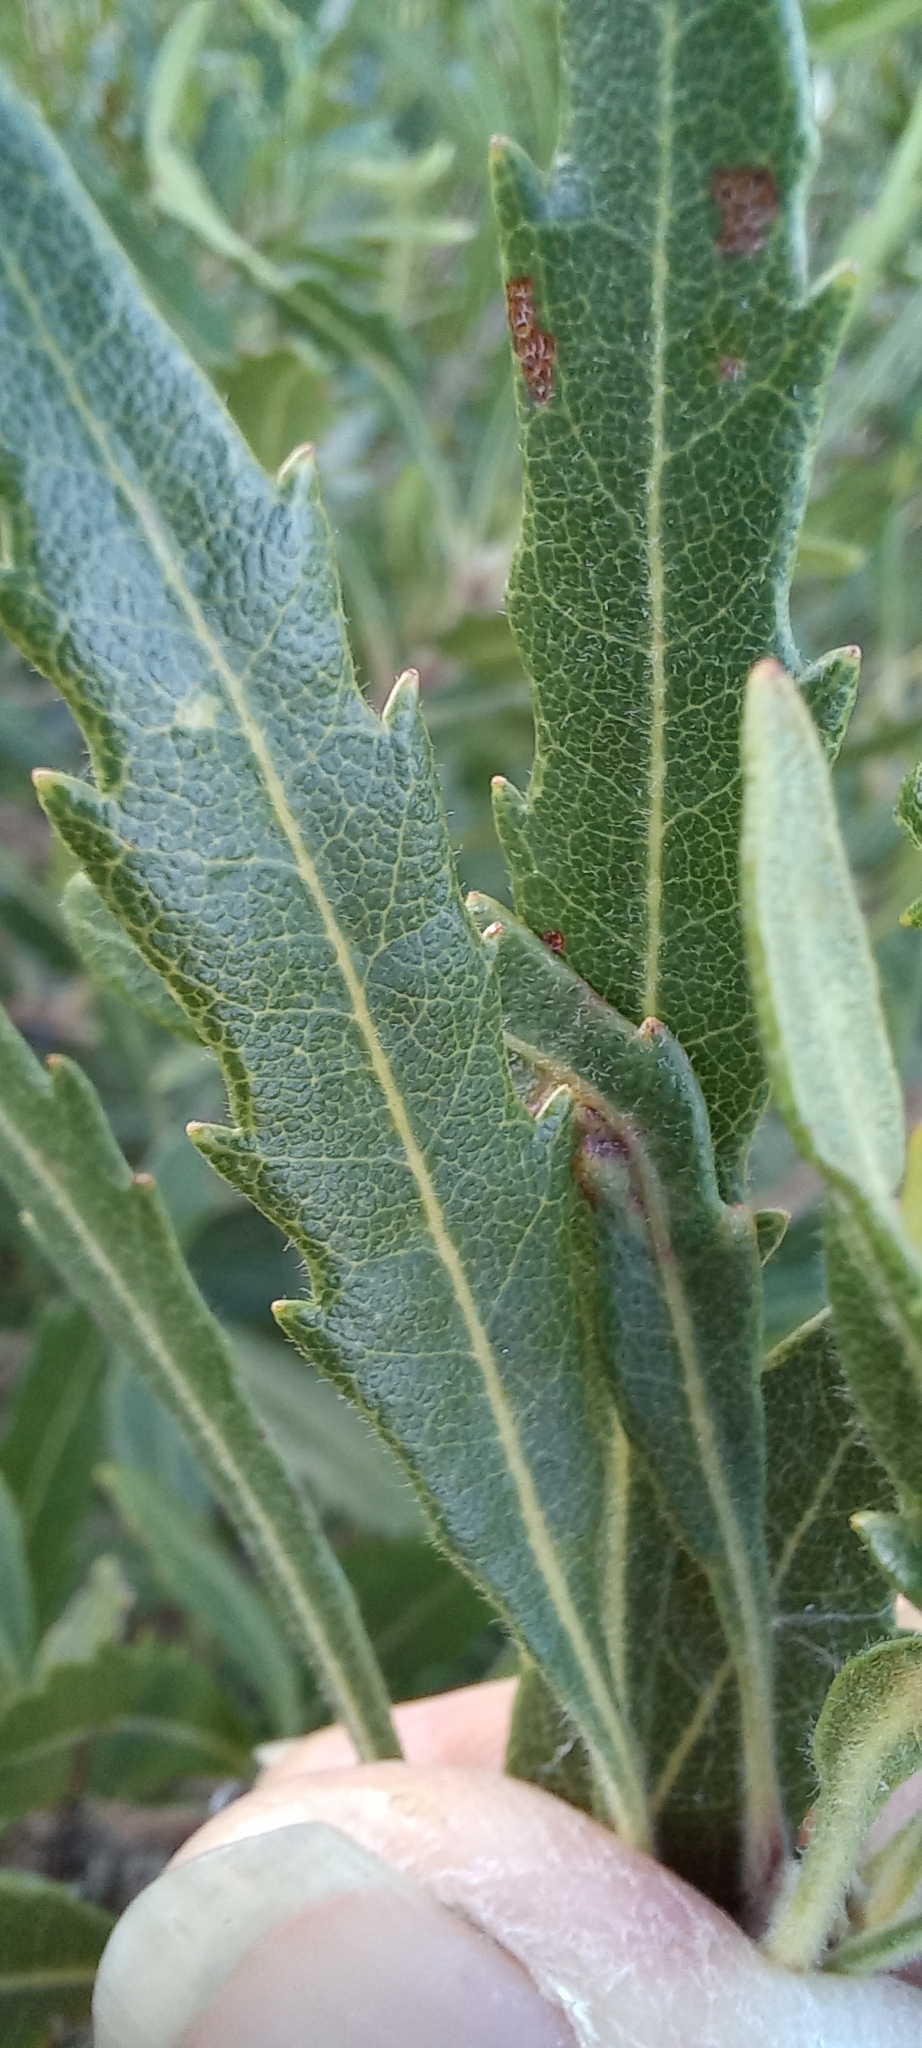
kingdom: Plantae
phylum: Tracheophyta
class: Magnoliopsida
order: Fagales
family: Myricaceae
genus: Morella
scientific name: Morella serrata
